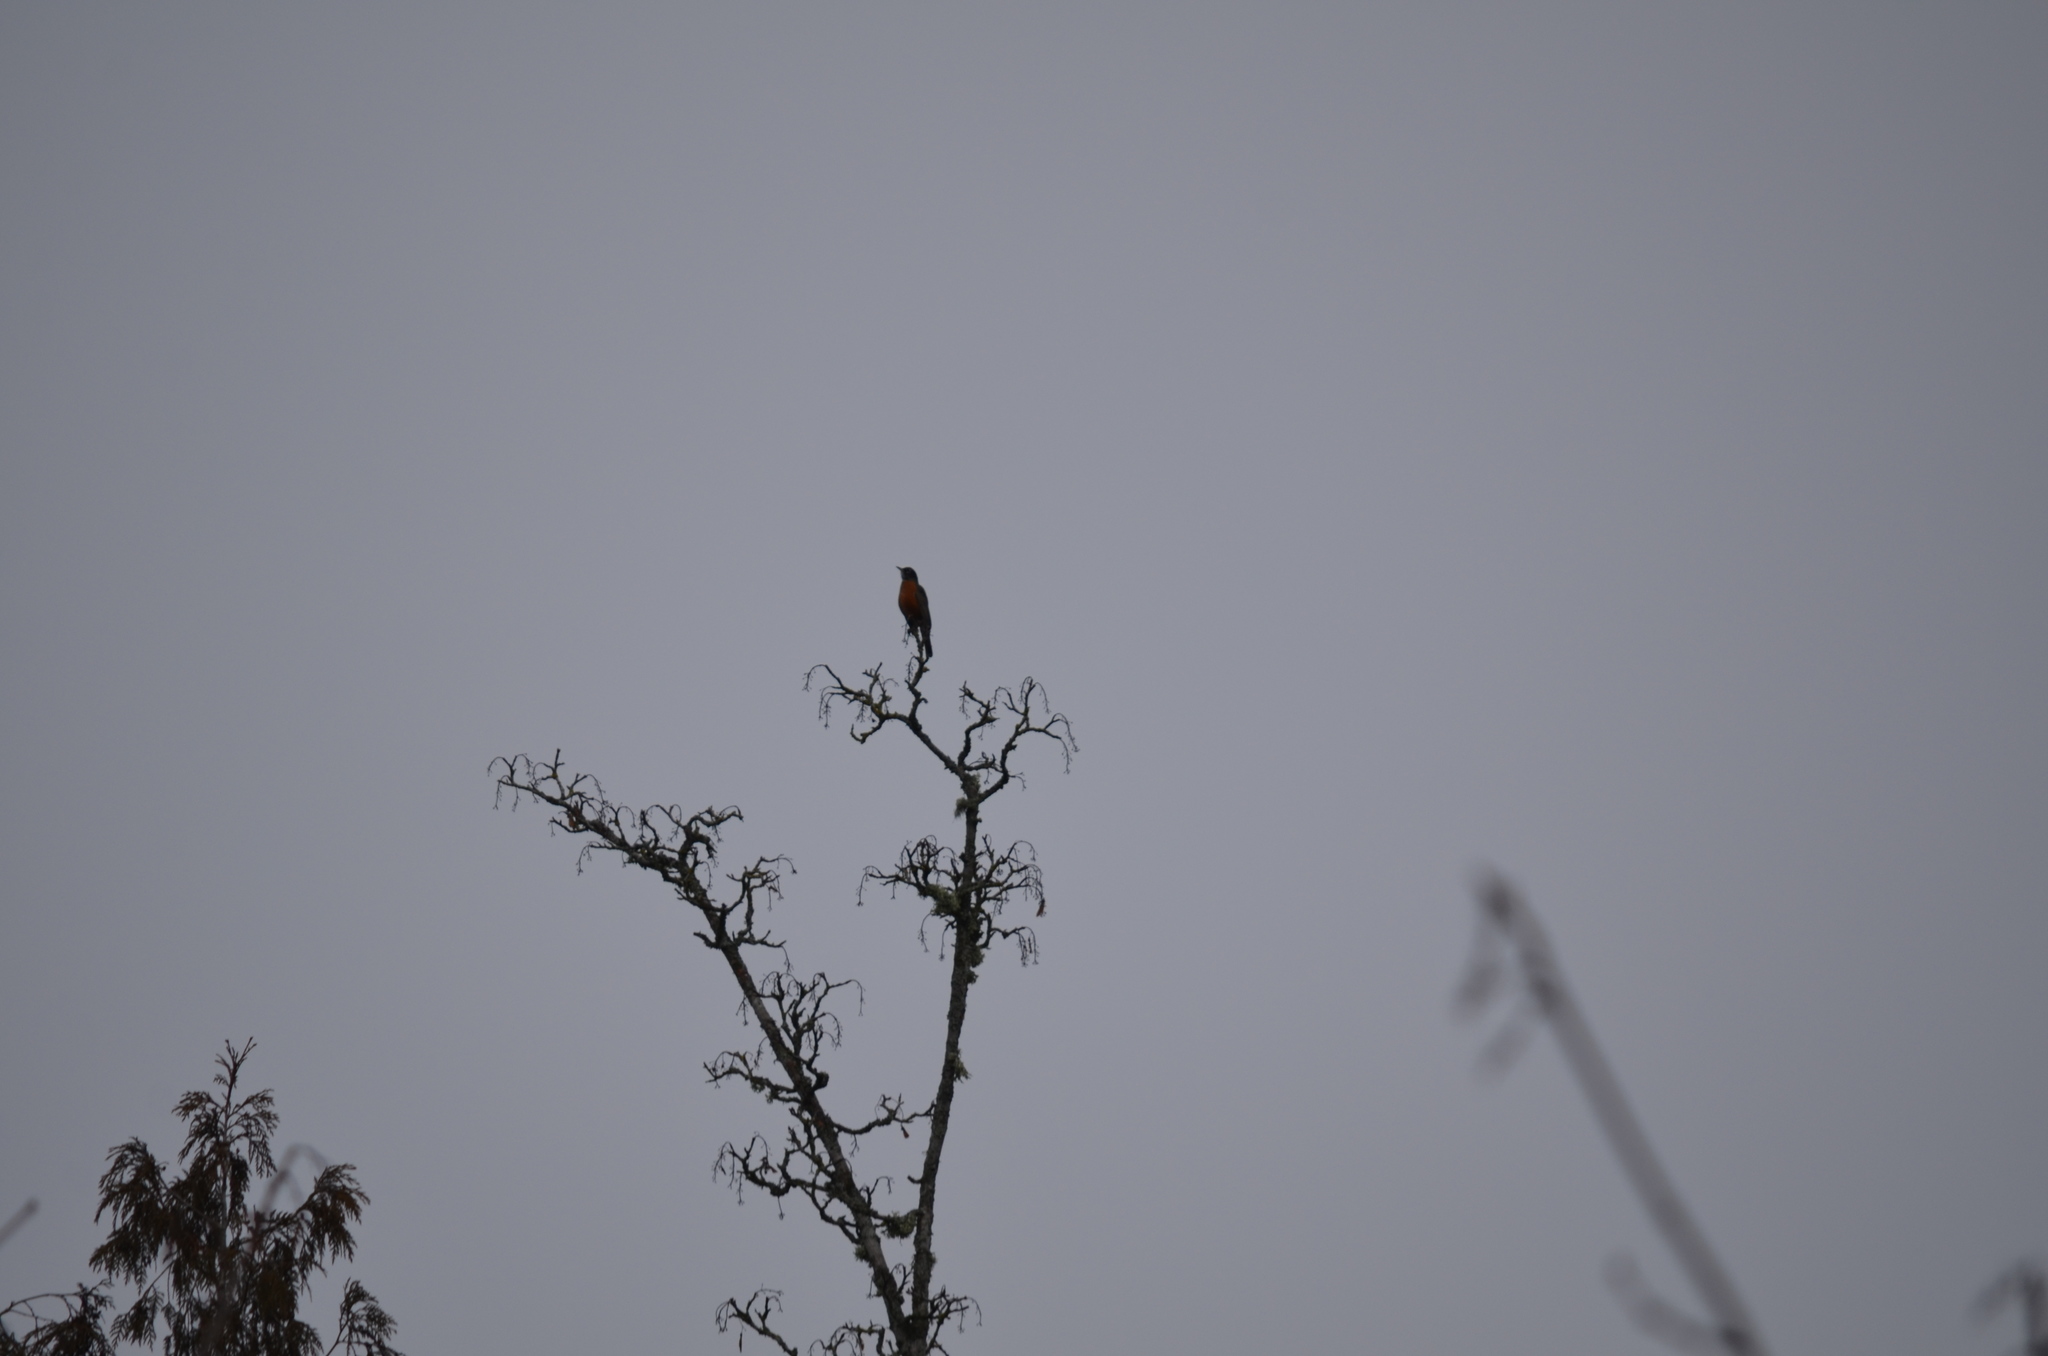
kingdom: Animalia
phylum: Chordata
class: Aves
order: Passeriformes
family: Turdidae
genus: Turdus
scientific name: Turdus migratorius
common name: American robin
